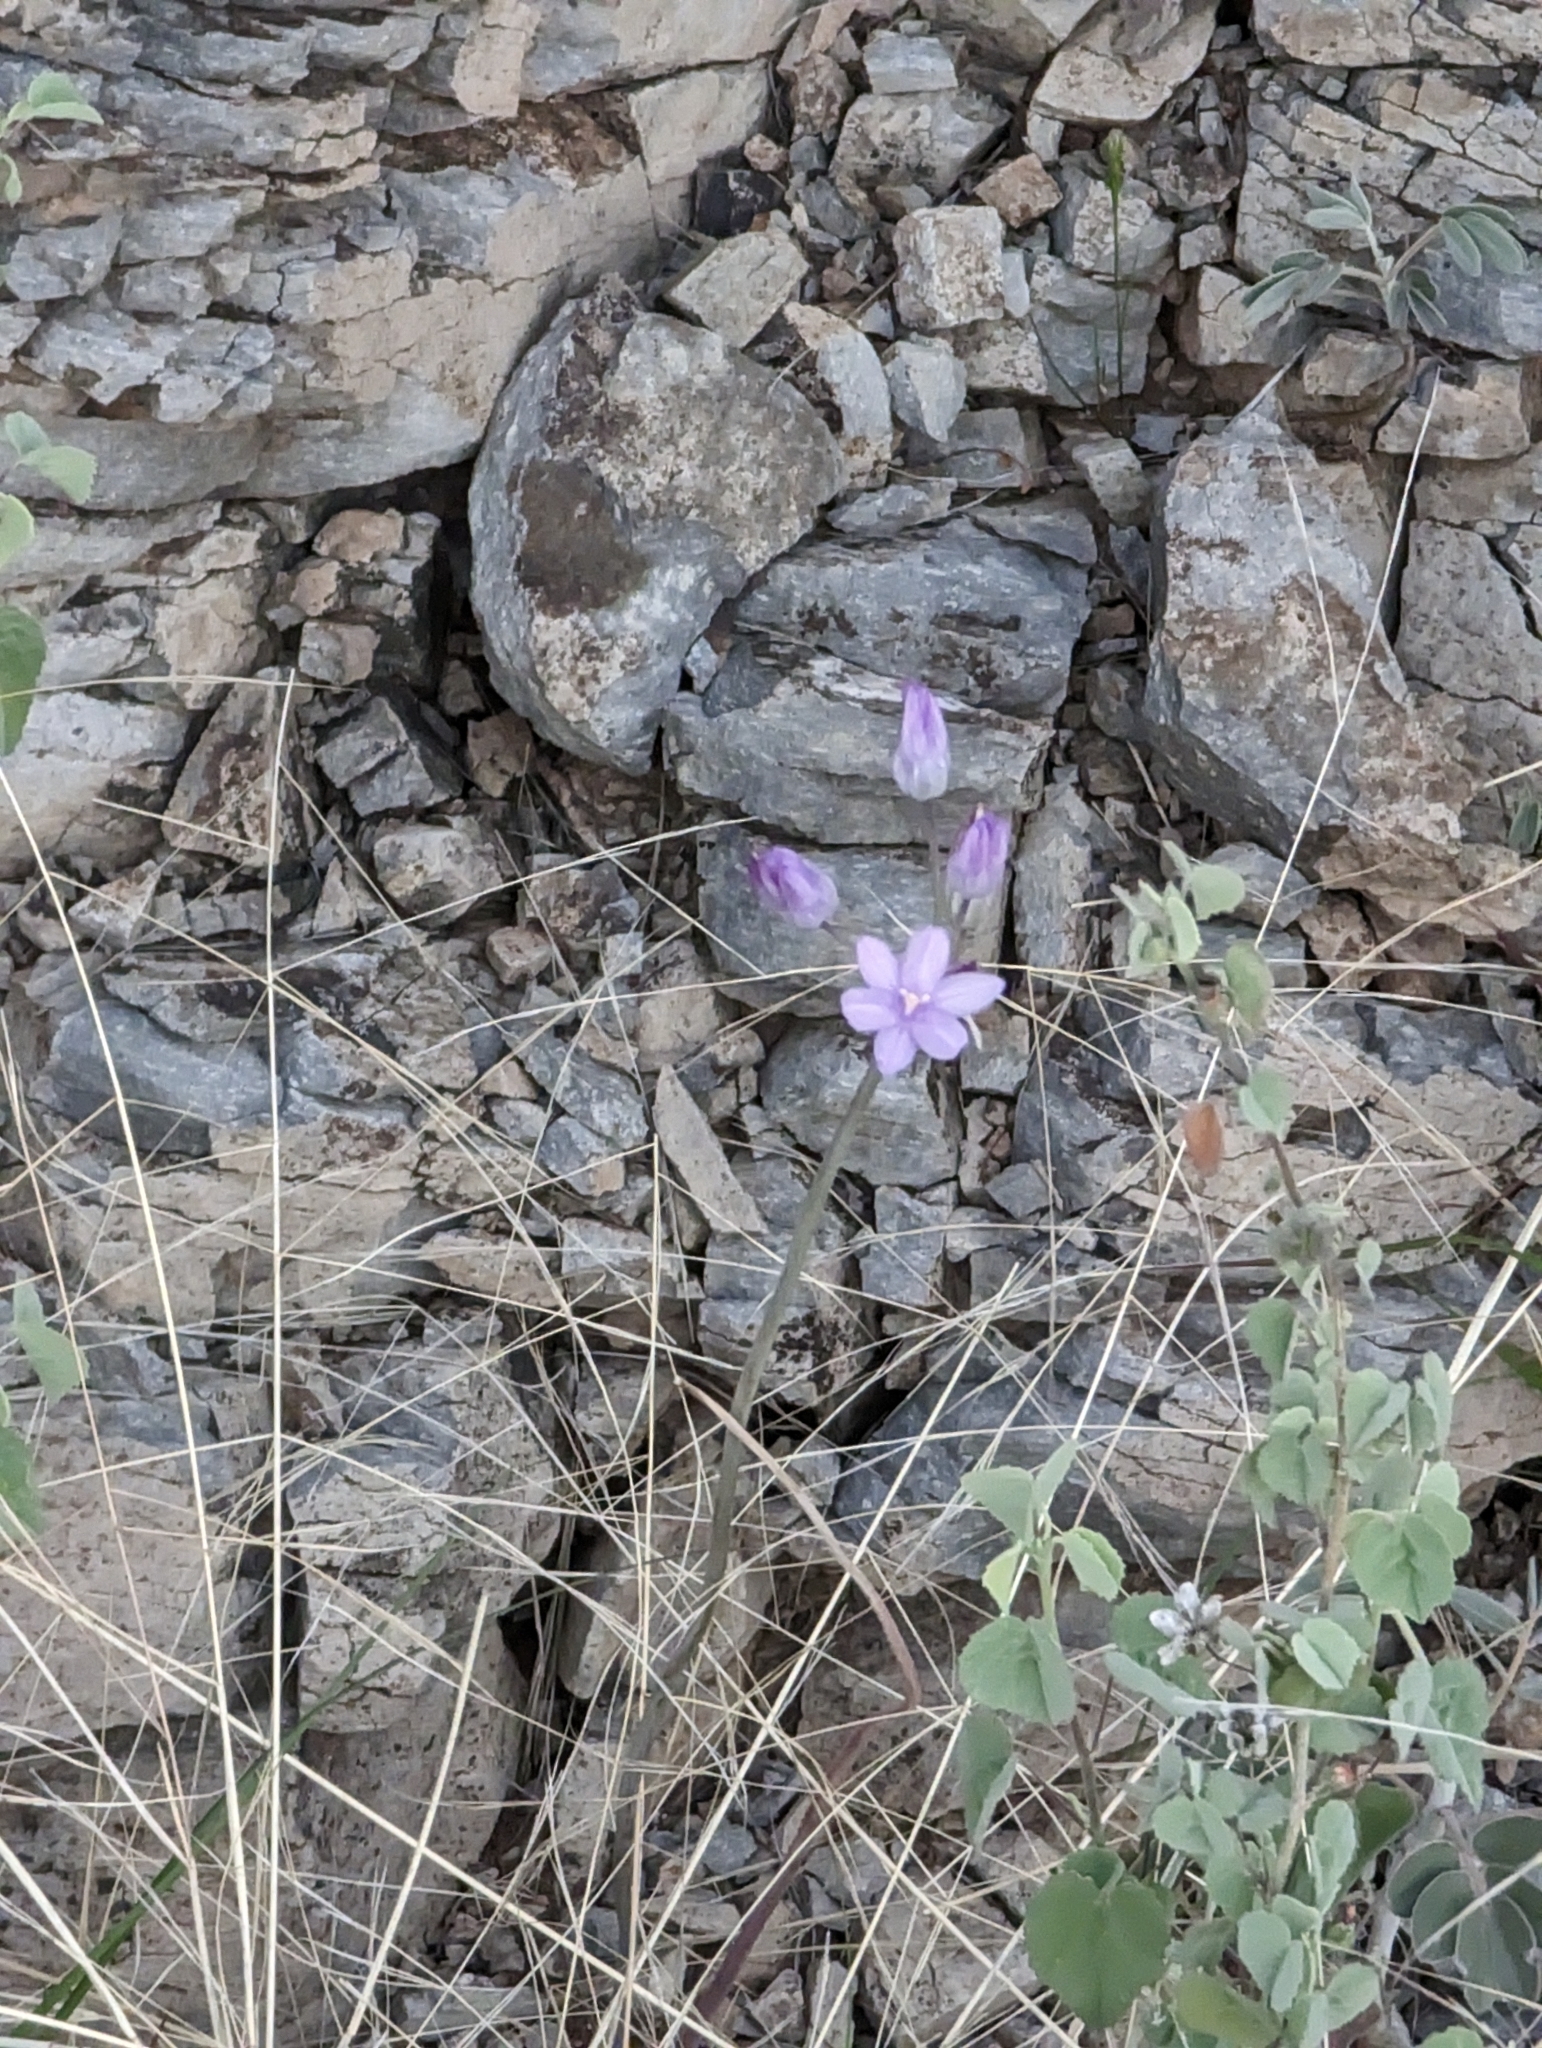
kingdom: Plantae
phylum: Tracheophyta
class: Liliopsida
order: Asparagales
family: Asparagaceae
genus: Dipterostemon
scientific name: Dipterostemon capitatus
